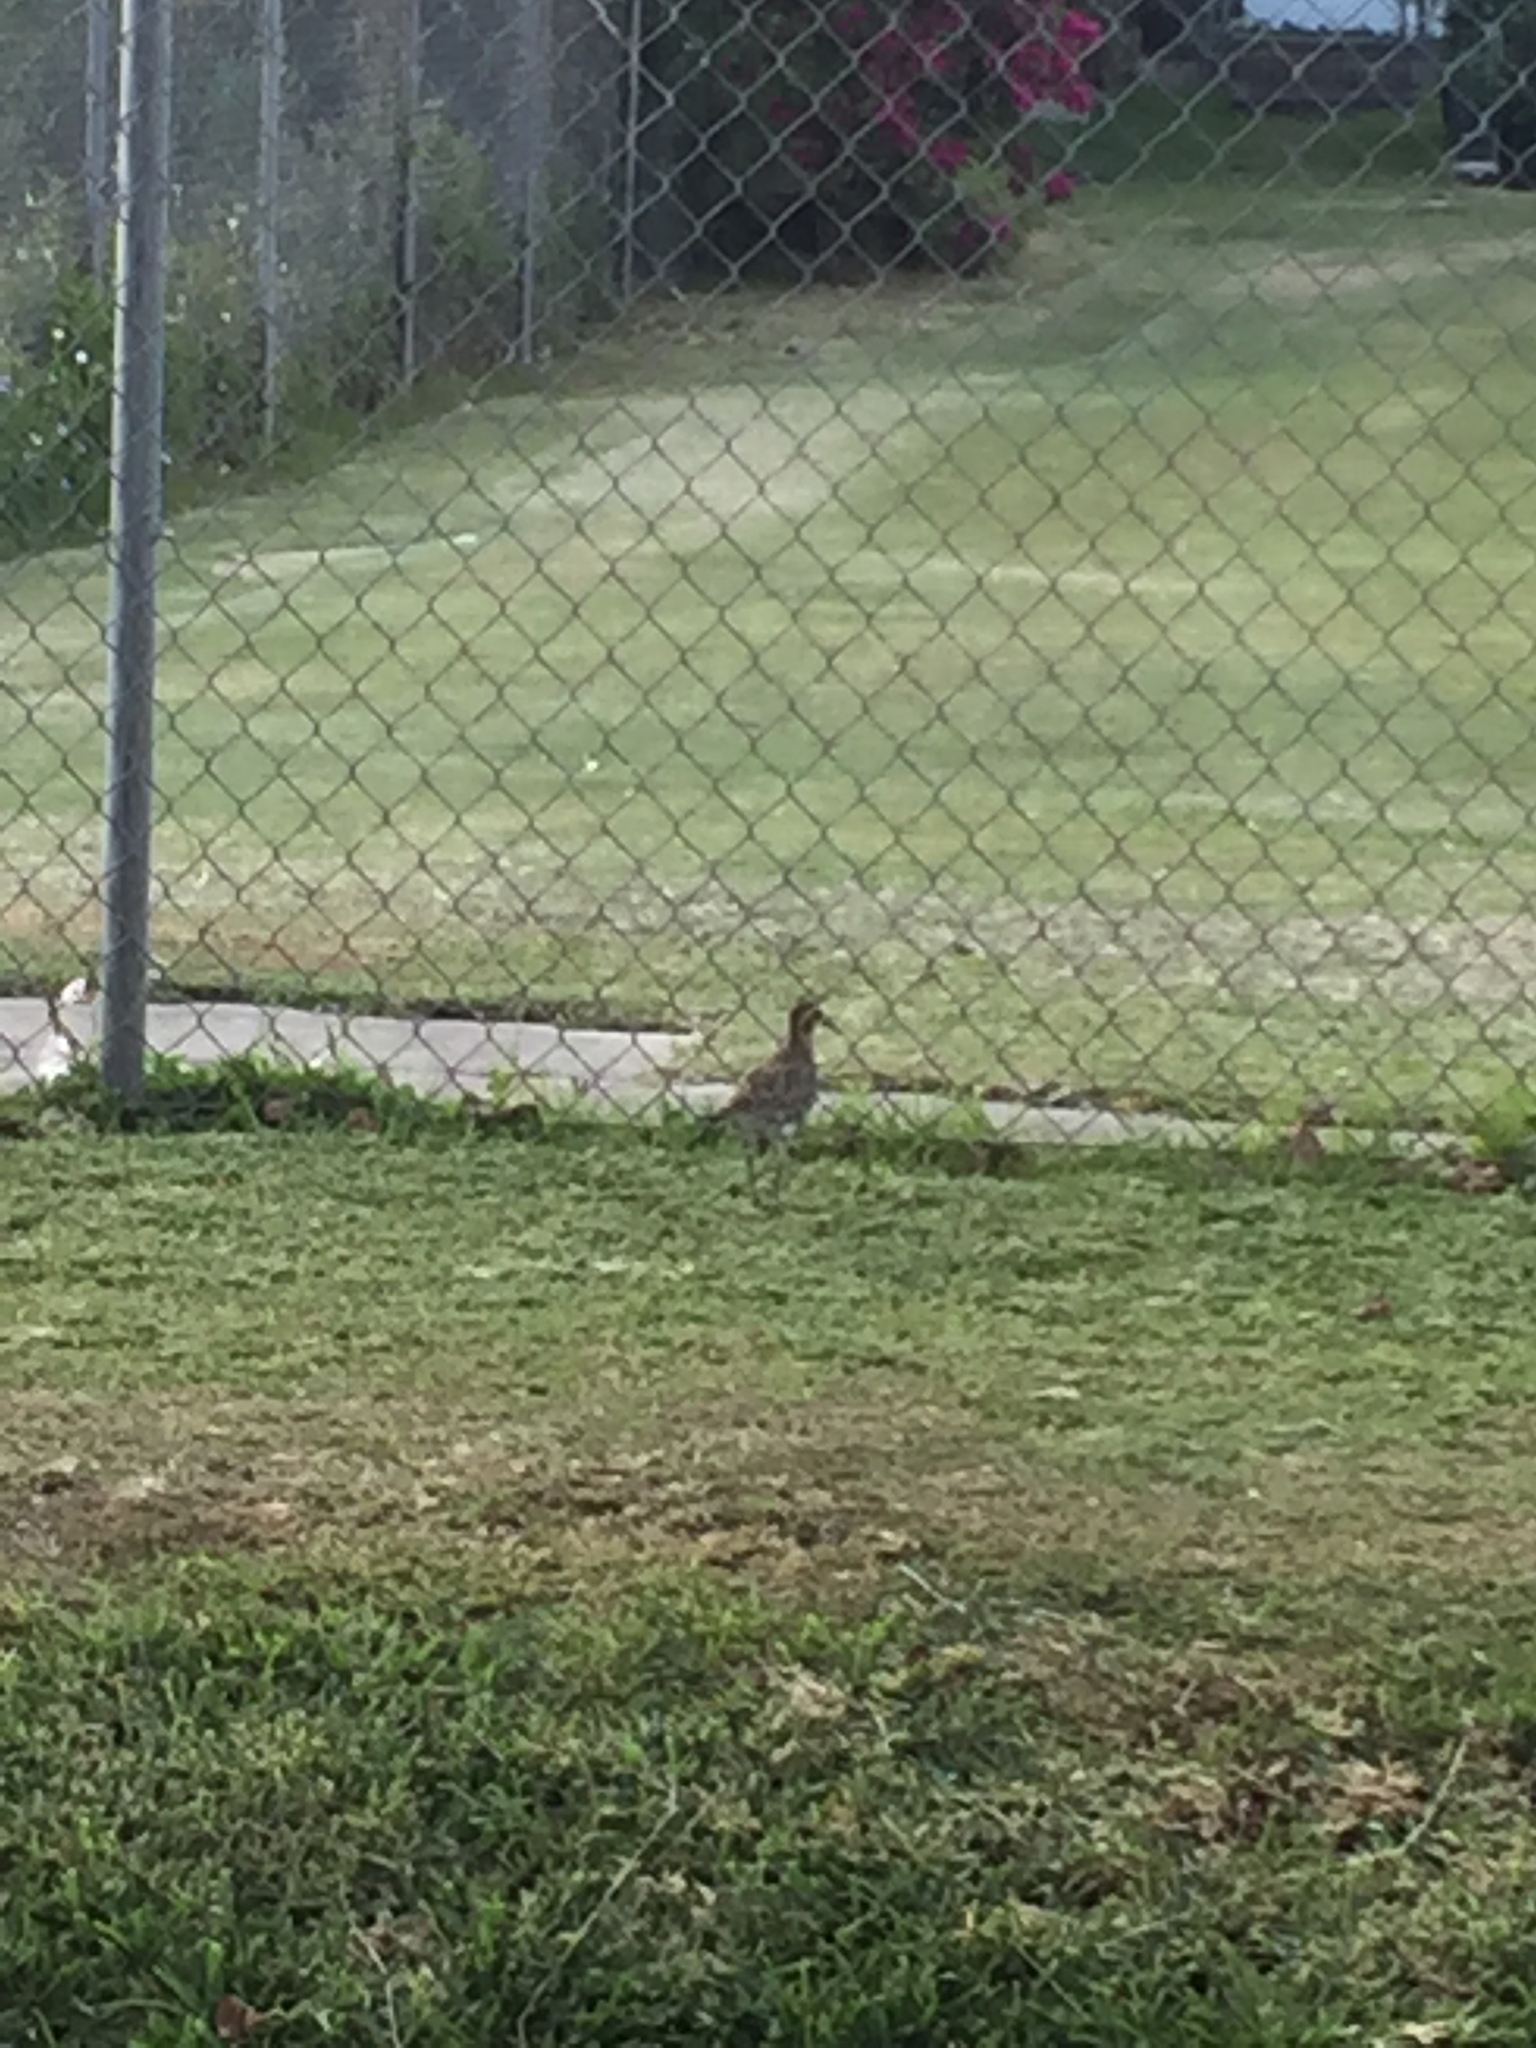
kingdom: Animalia
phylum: Chordata
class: Aves
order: Charadriiformes
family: Charadriidae
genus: Pluvialis
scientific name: Pluvialis fulva
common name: Pacific golden plover
